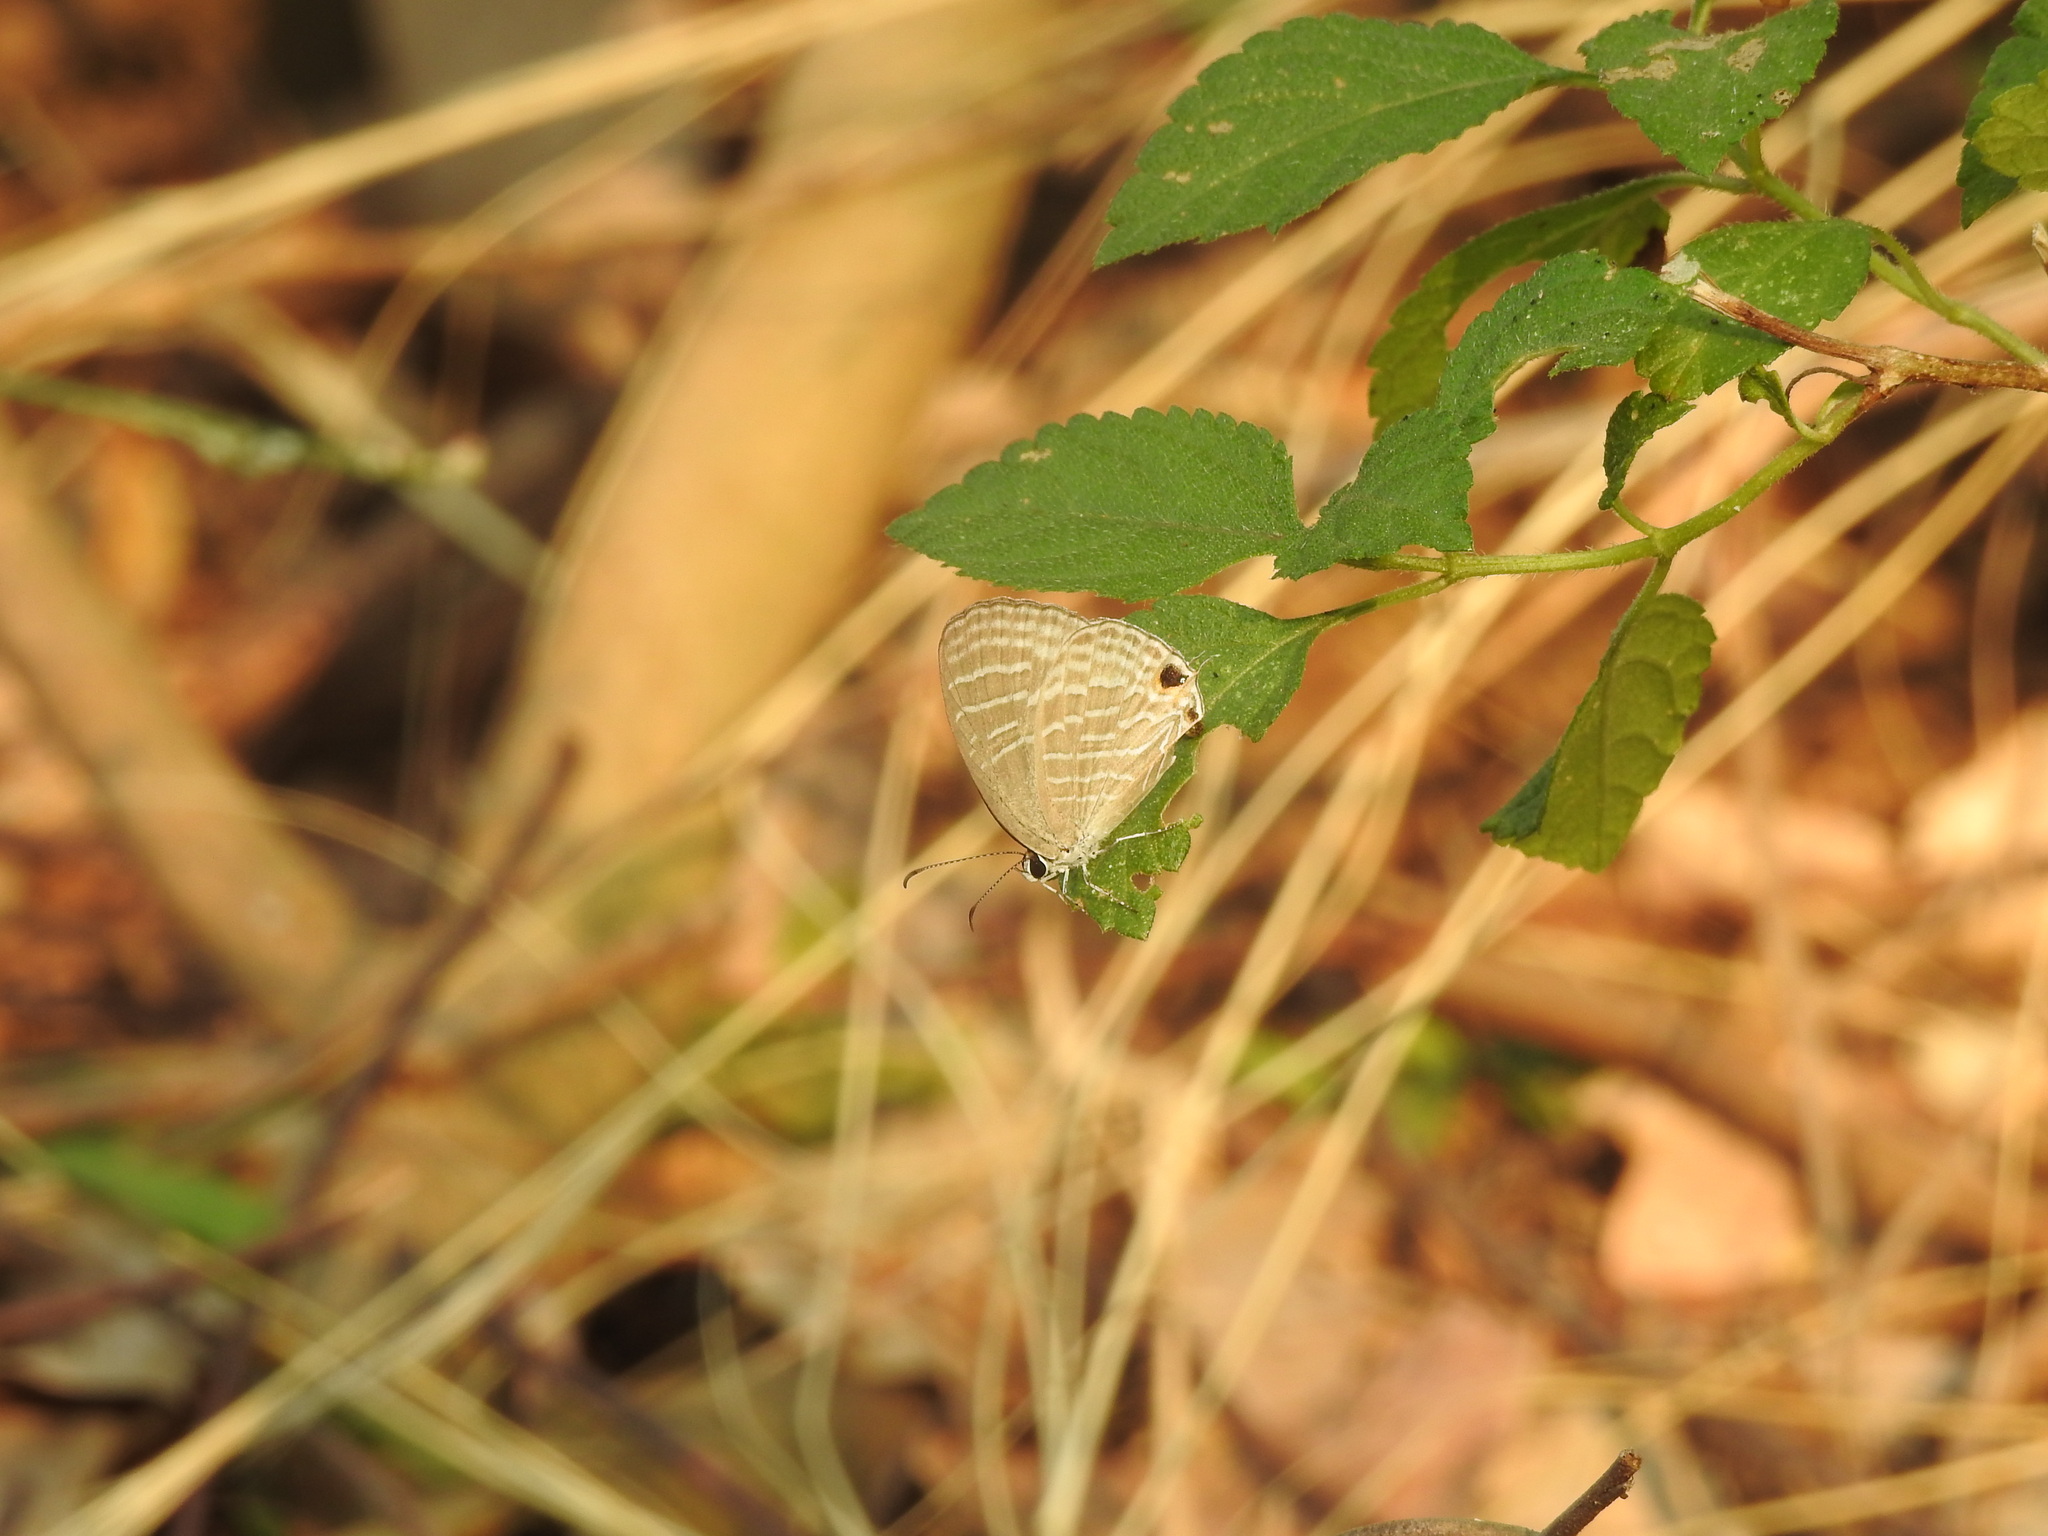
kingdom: Animalia
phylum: Arthropoda
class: Insecta
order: Lepidoptera
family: Lycaenidae
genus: Jamides
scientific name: Jamides celeno
